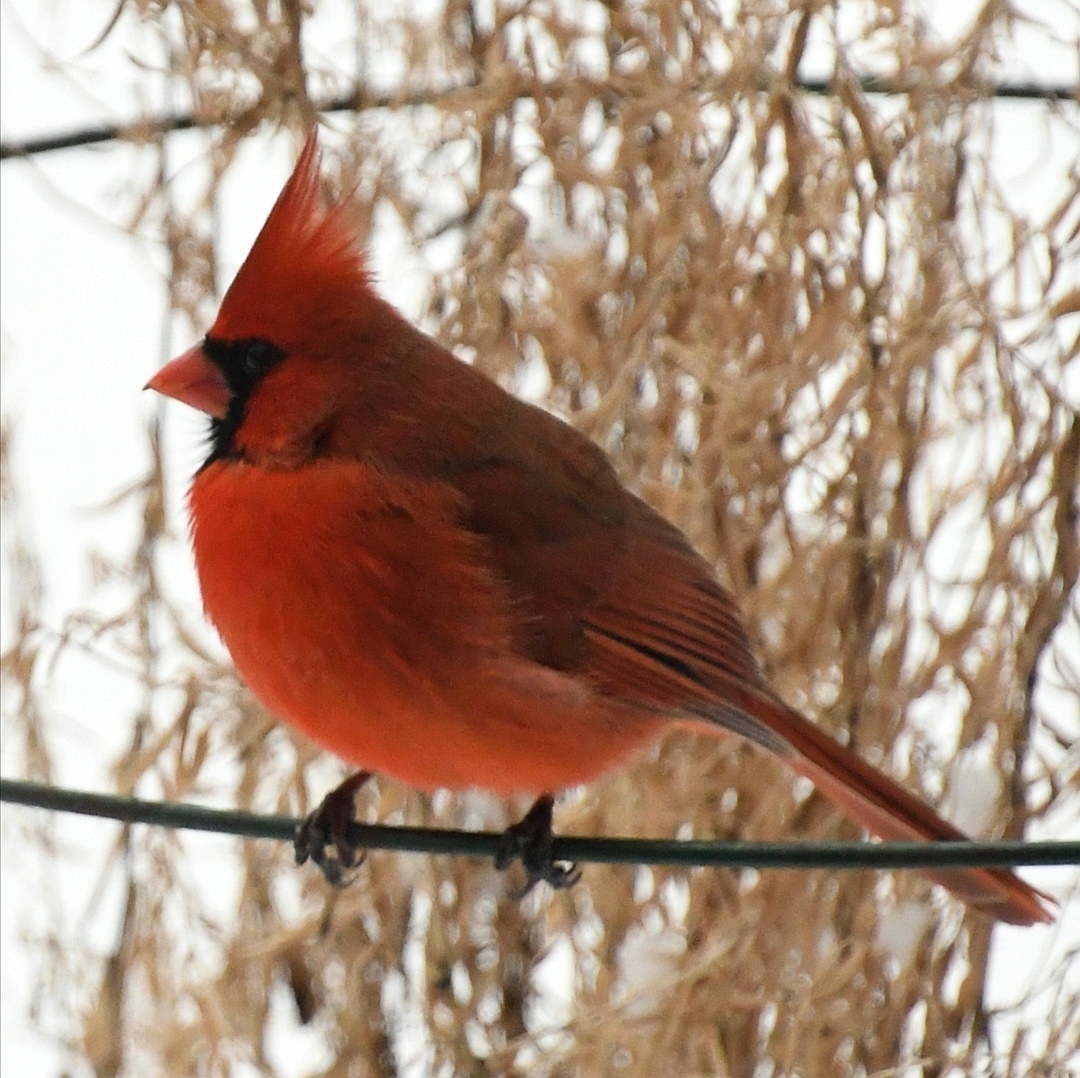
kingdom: Animalia
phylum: Chordata
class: Aves
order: Passeriformes
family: Cardinalidae
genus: Cardinalis
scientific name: Cardinalis cardinalis
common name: Northern cardinal
